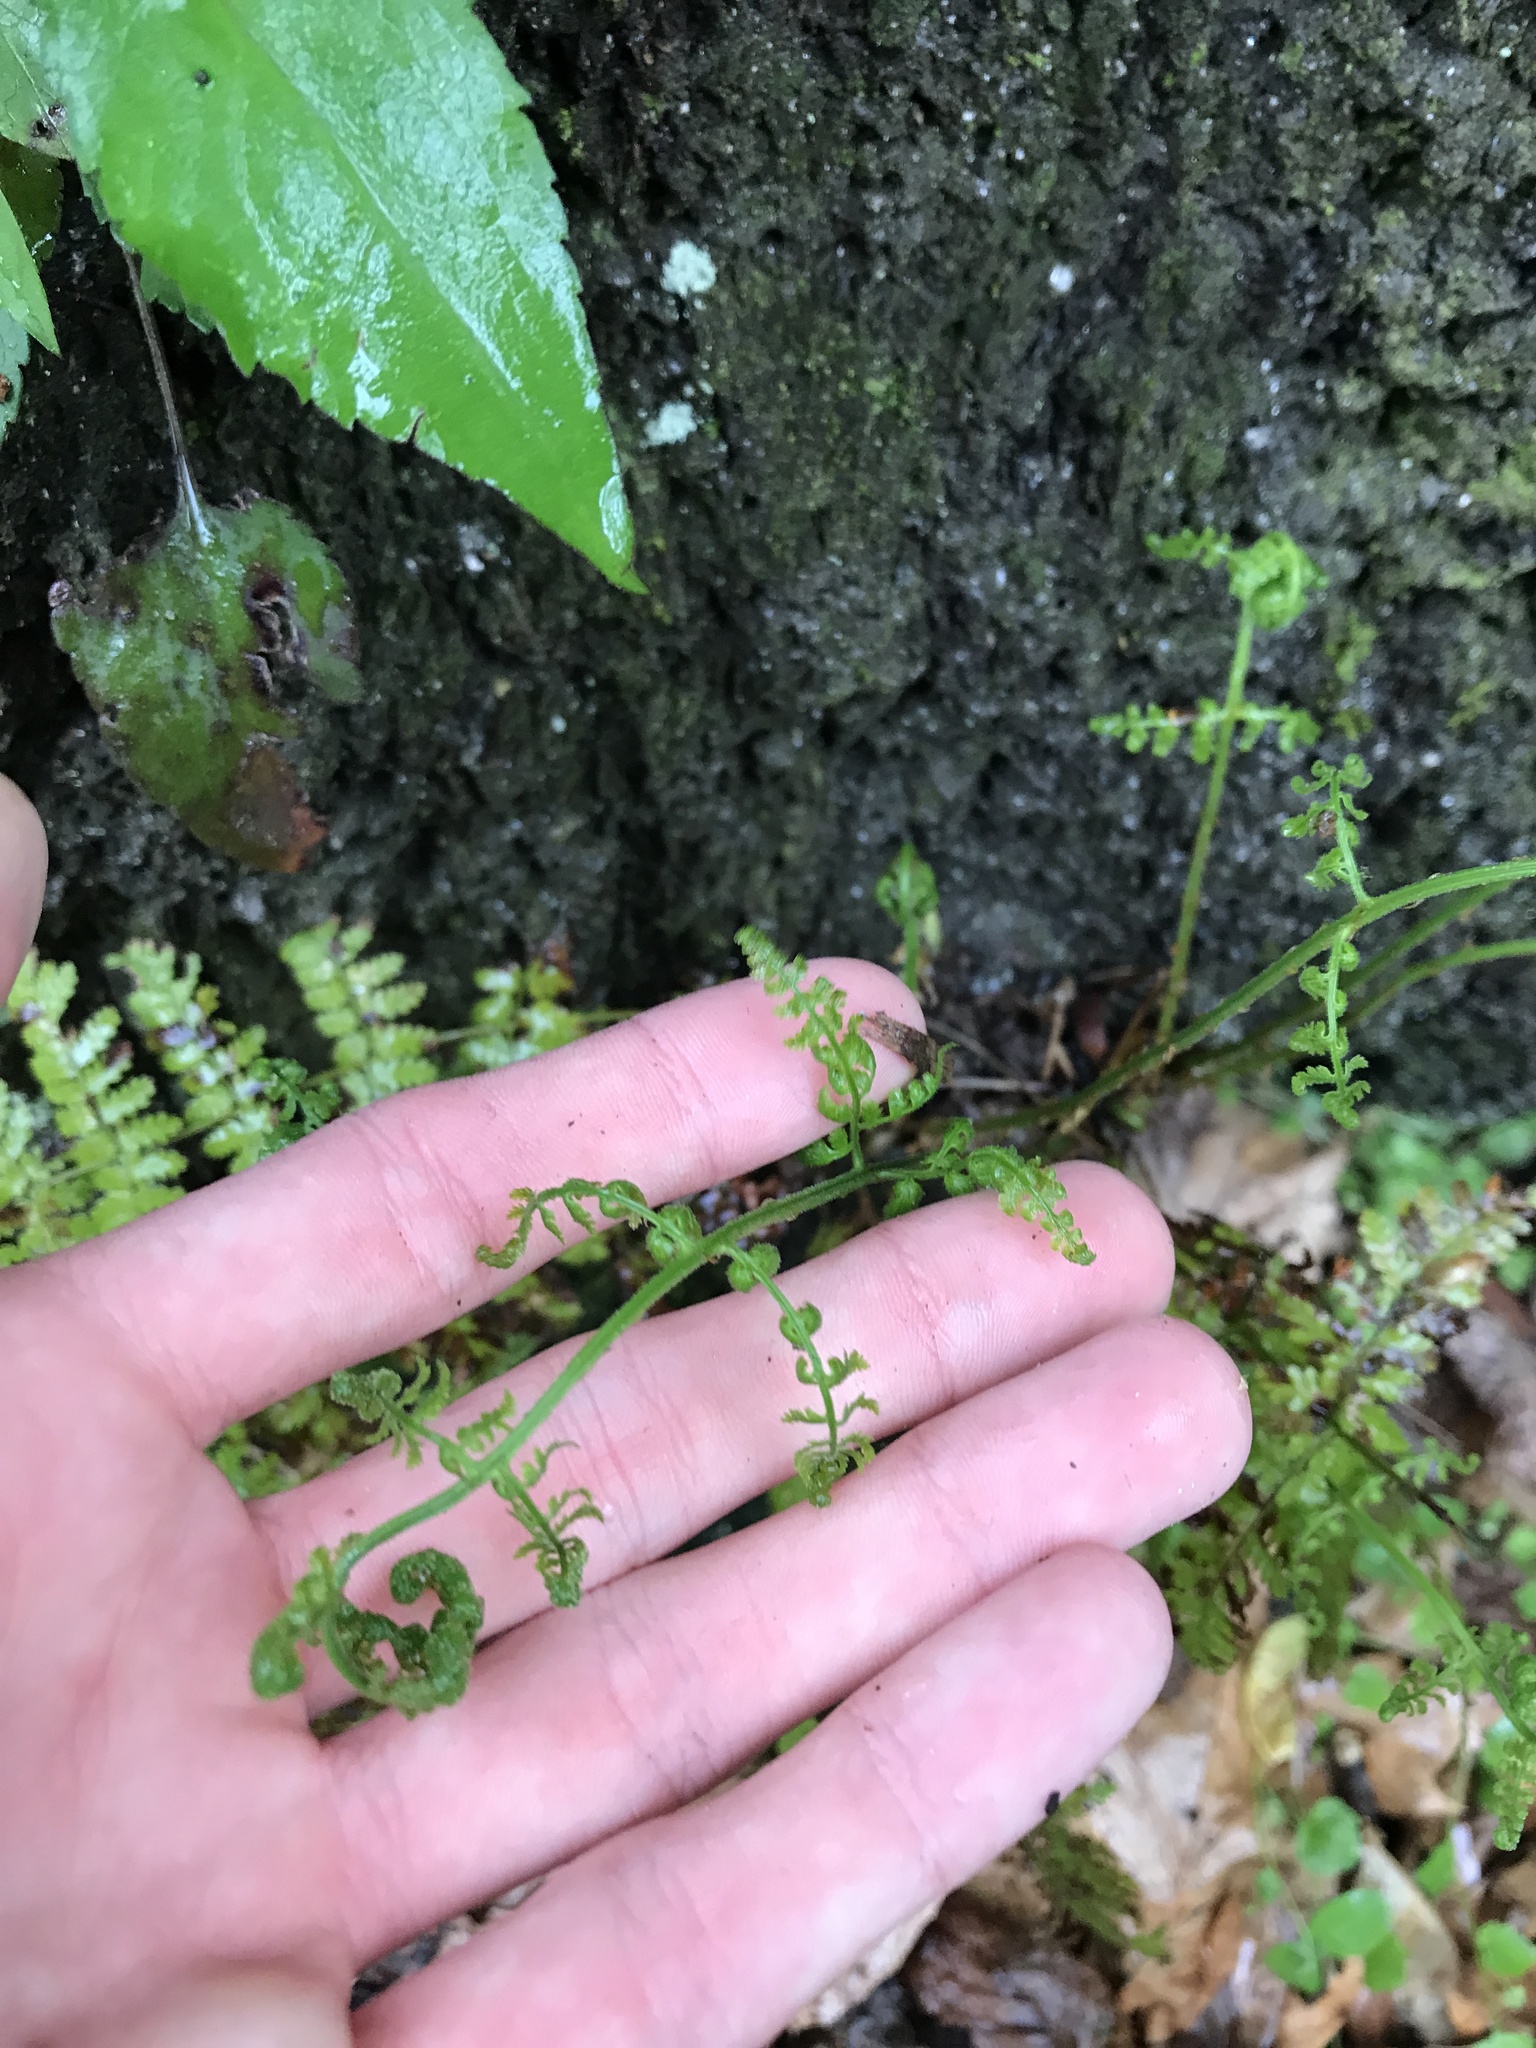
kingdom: Plantae
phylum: Tracheophyta
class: Polypodiopsida
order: Polypodiales
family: Dryopteridaceae
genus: Dryopteris
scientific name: Dryopteris intermedia
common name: Evergreen wood fern
